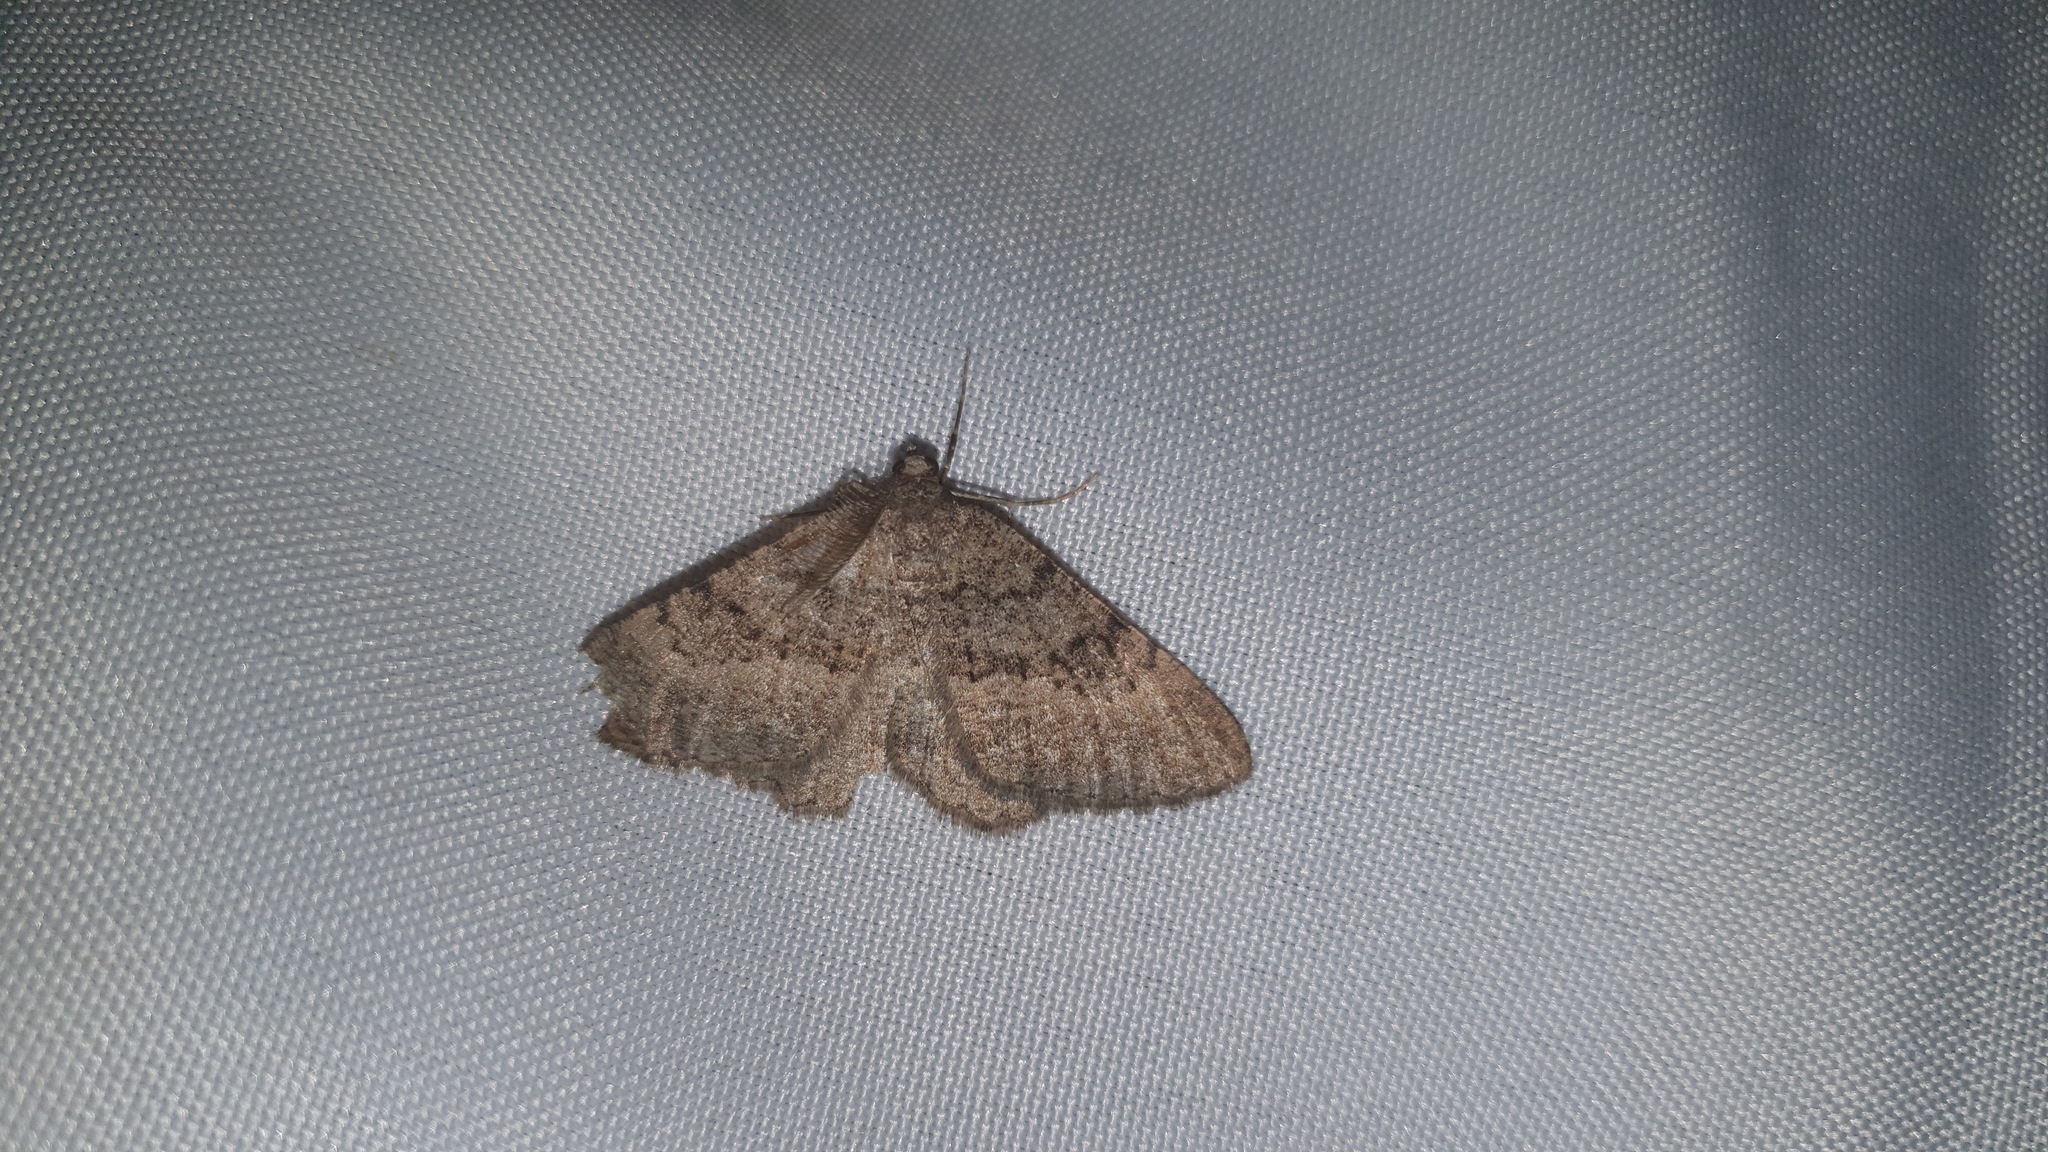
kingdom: Animalia
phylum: Arthropoda
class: Insecta
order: Lepidoptera
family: Geometridae
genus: Selidosema
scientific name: Selidosema taeniolaria
